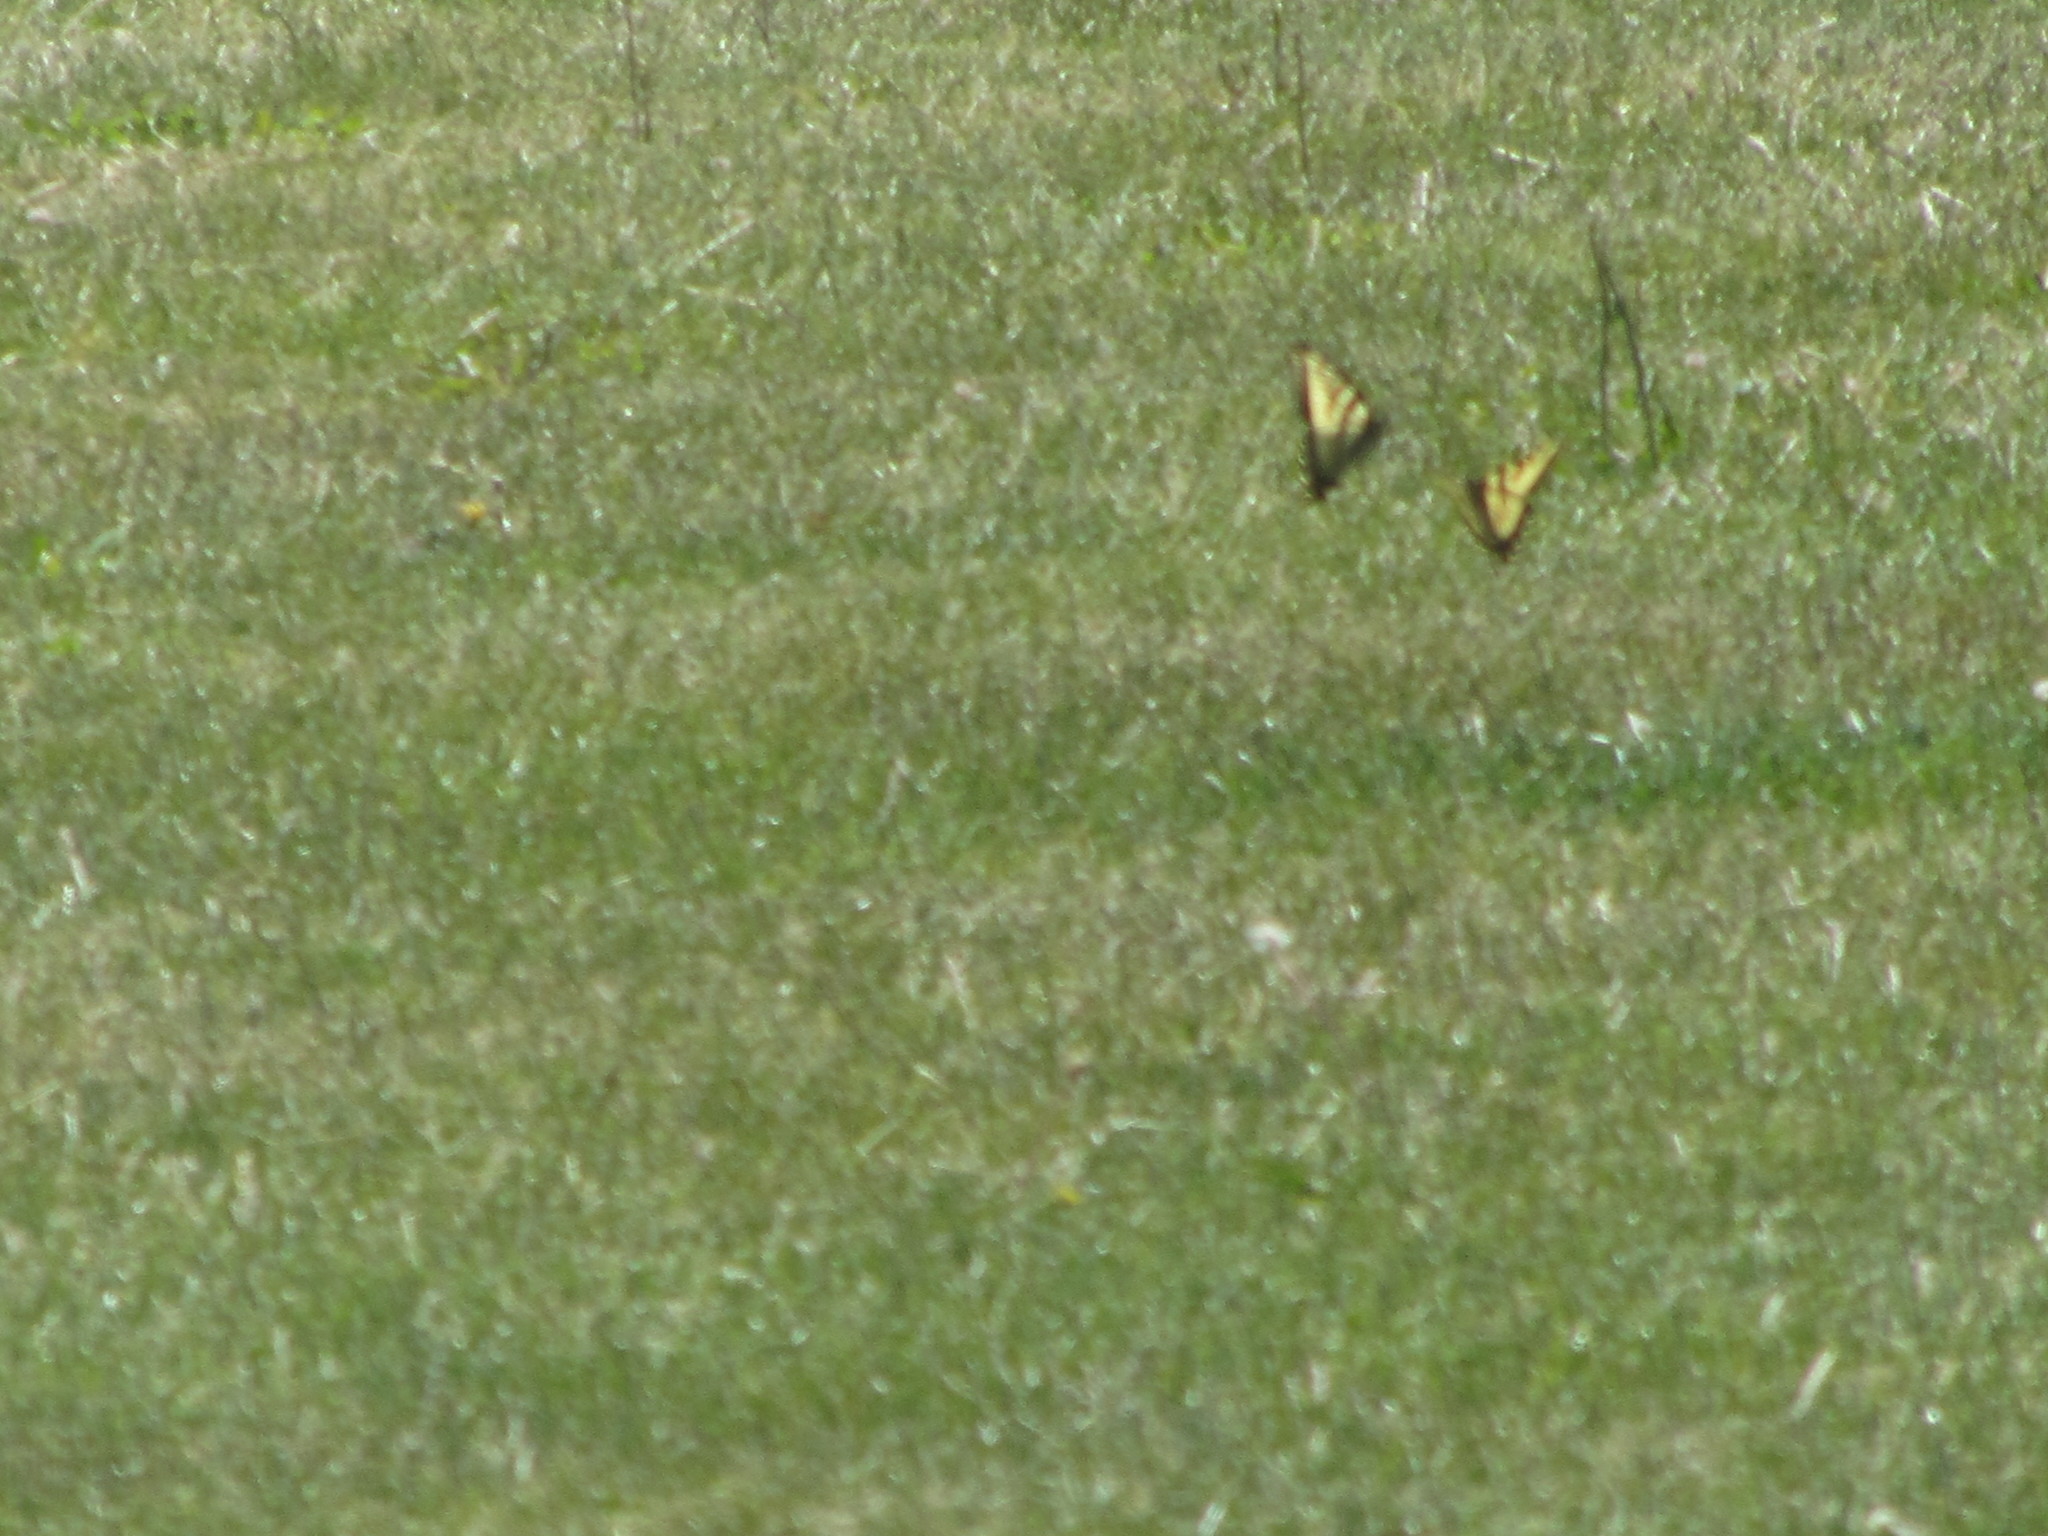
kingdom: Animalia
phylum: Arthropoda
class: Insecta
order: Lepidoptera
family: Papilionidae
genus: Papilio
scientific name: Papilio rutulus
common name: Western tiger swallowtail
